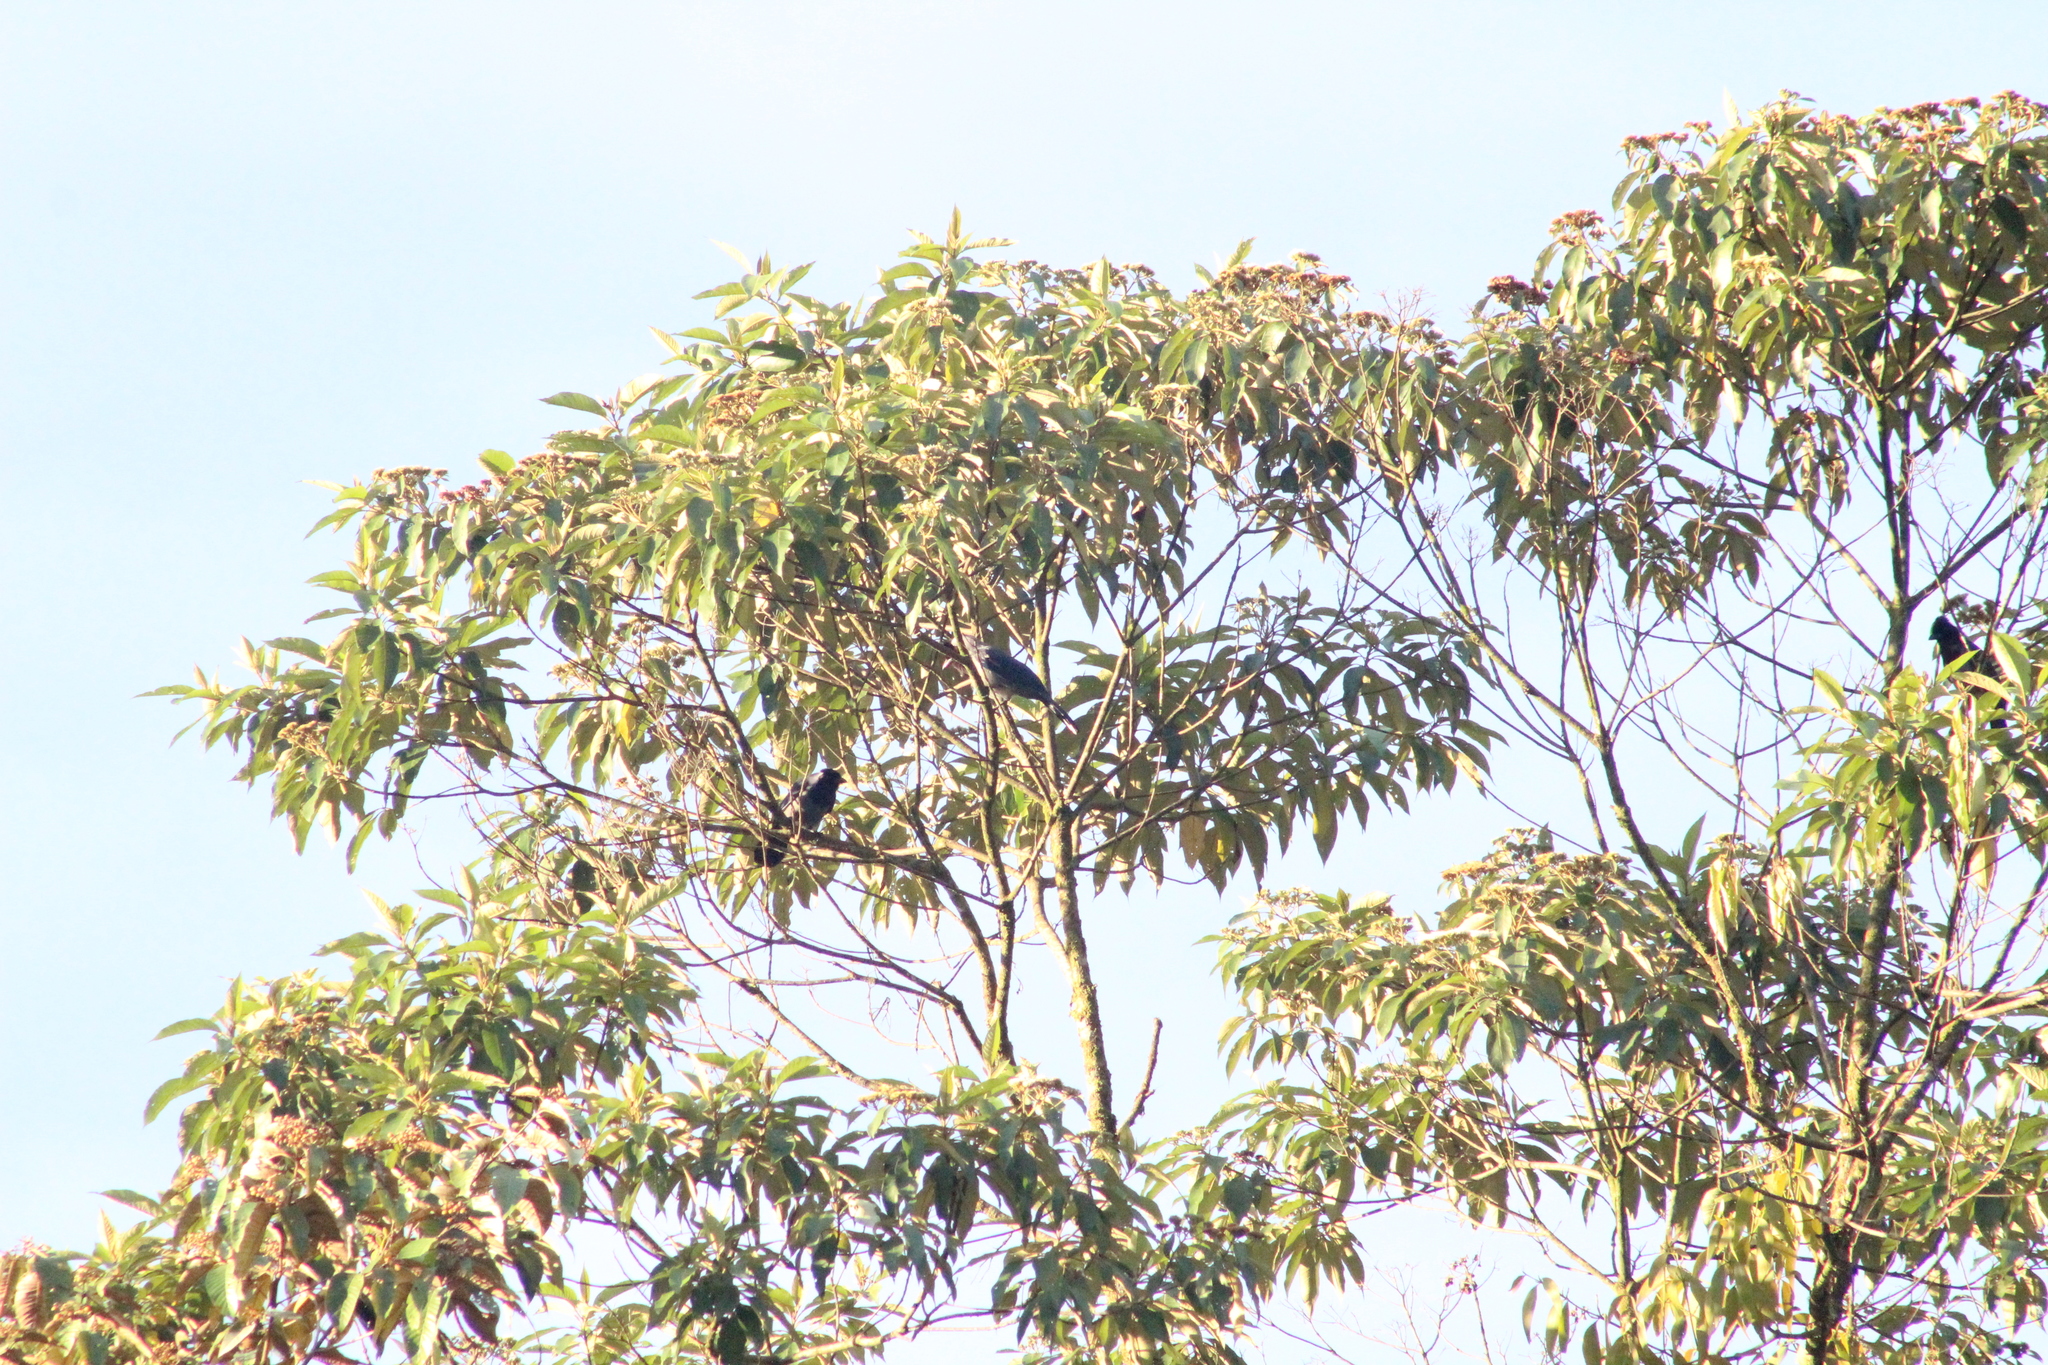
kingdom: Animalia
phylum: Chordata
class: Aves
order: Passeriformes
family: Corvidae
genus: Cyanocorax
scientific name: Cyanocorax violaceus
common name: Violaceous jay
